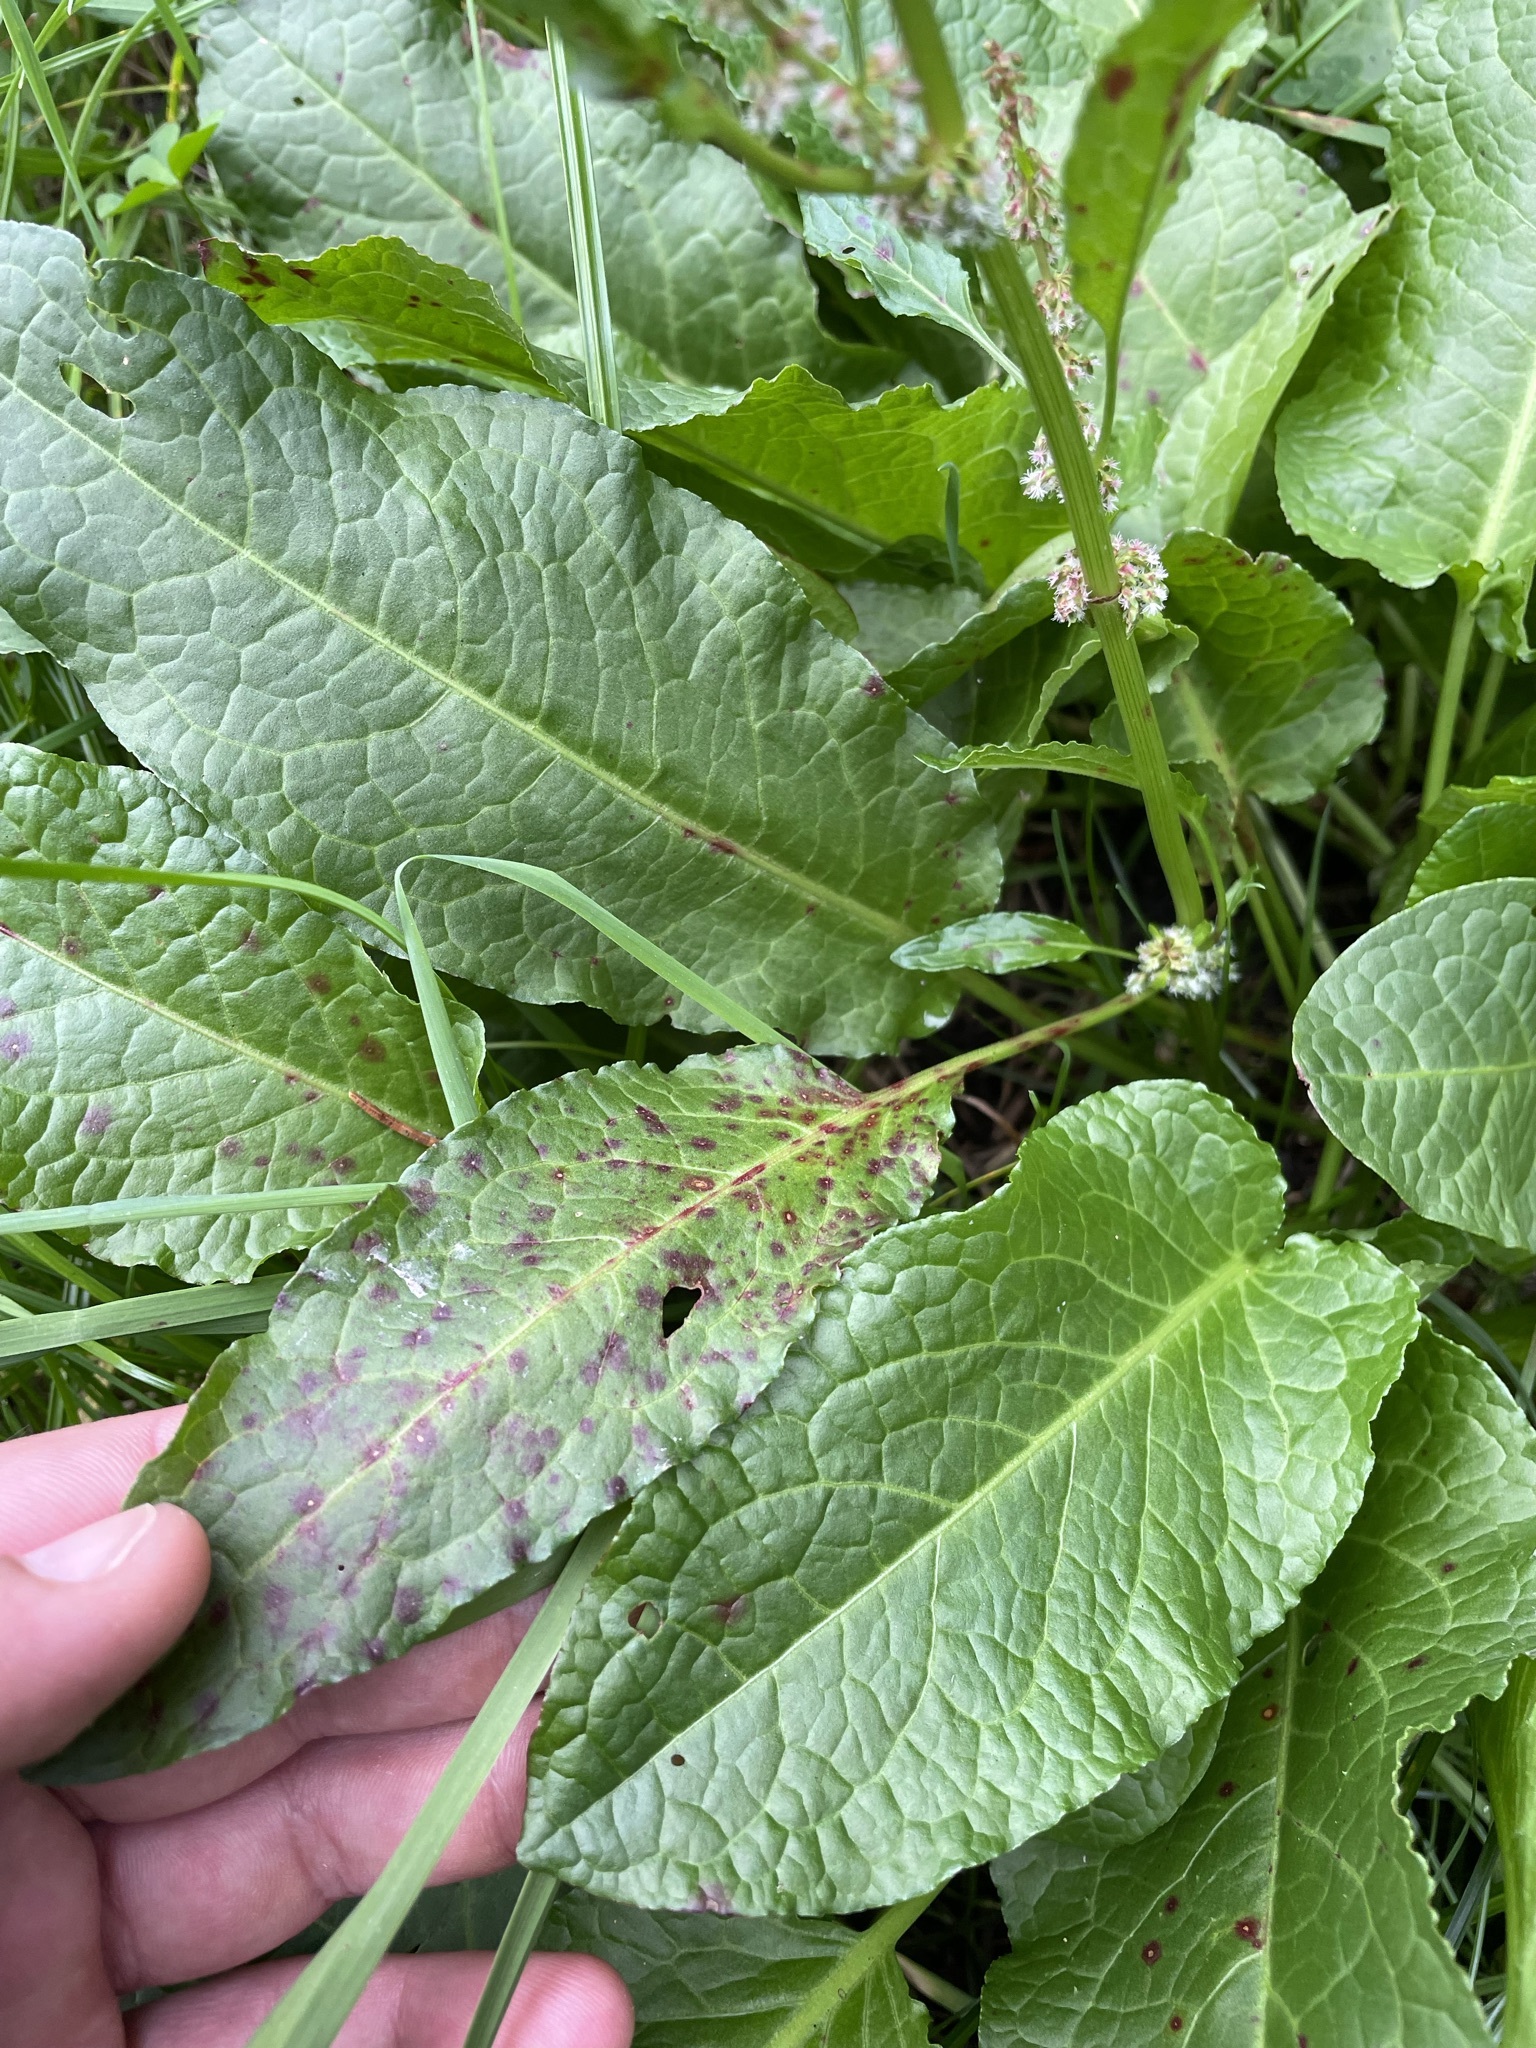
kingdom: Plantae
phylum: Tracheophyta
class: Magnoliopsida
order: Caryophyllales
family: Polygonaceae
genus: Rumex
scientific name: Rumex obtusifolius
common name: Bitter dock
